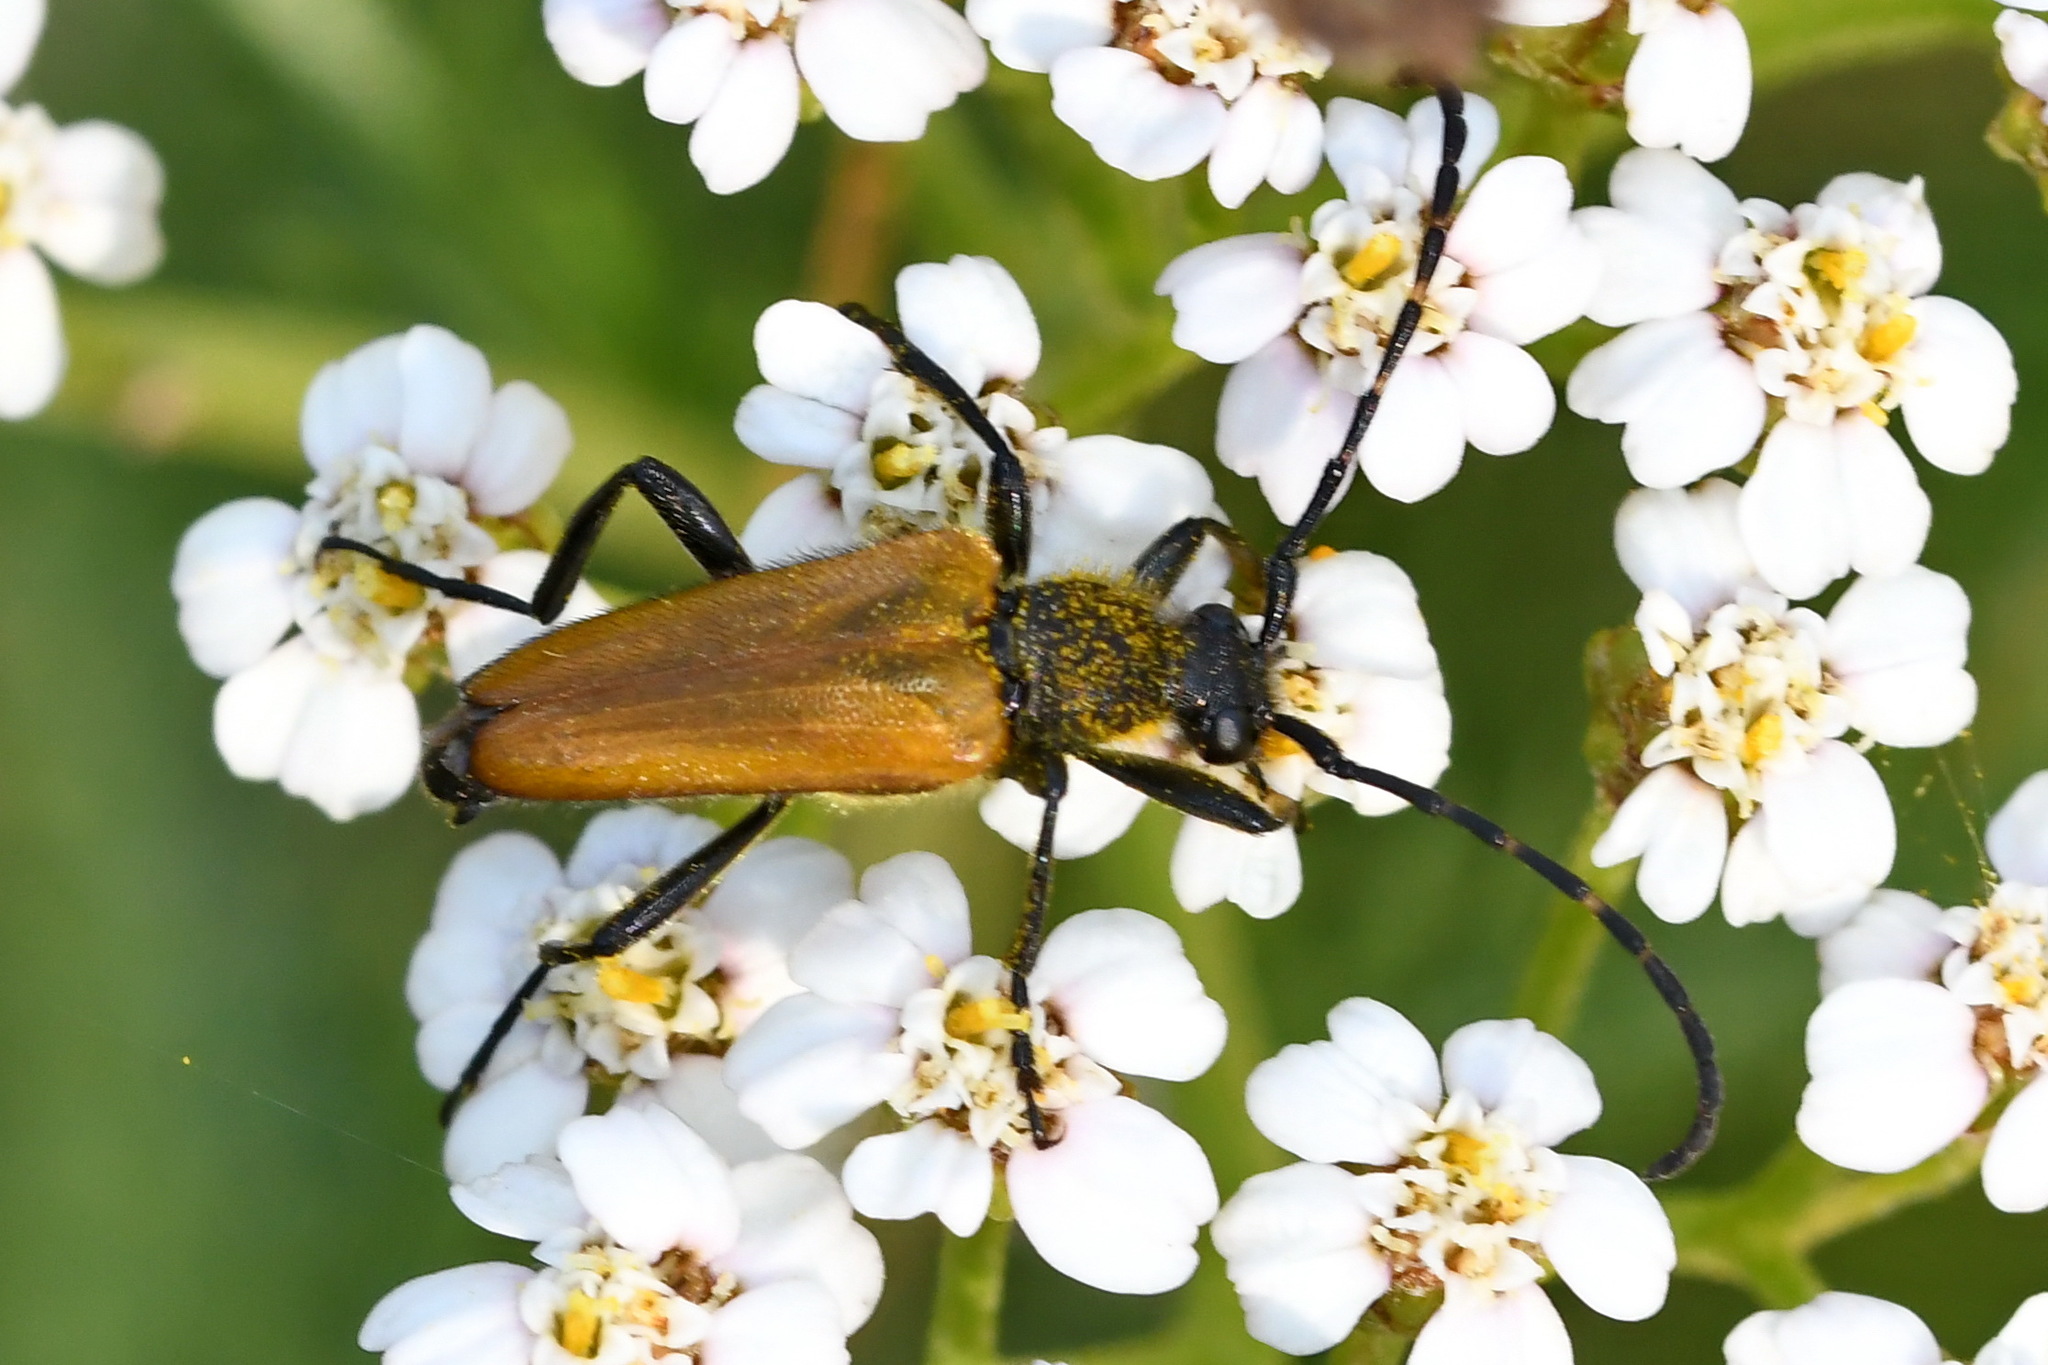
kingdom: Animalia
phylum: Arthropoda
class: Insecta
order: Coleoptera
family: Cerambycidae
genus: Paracorymbia
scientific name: Paracorymbia hybrida
